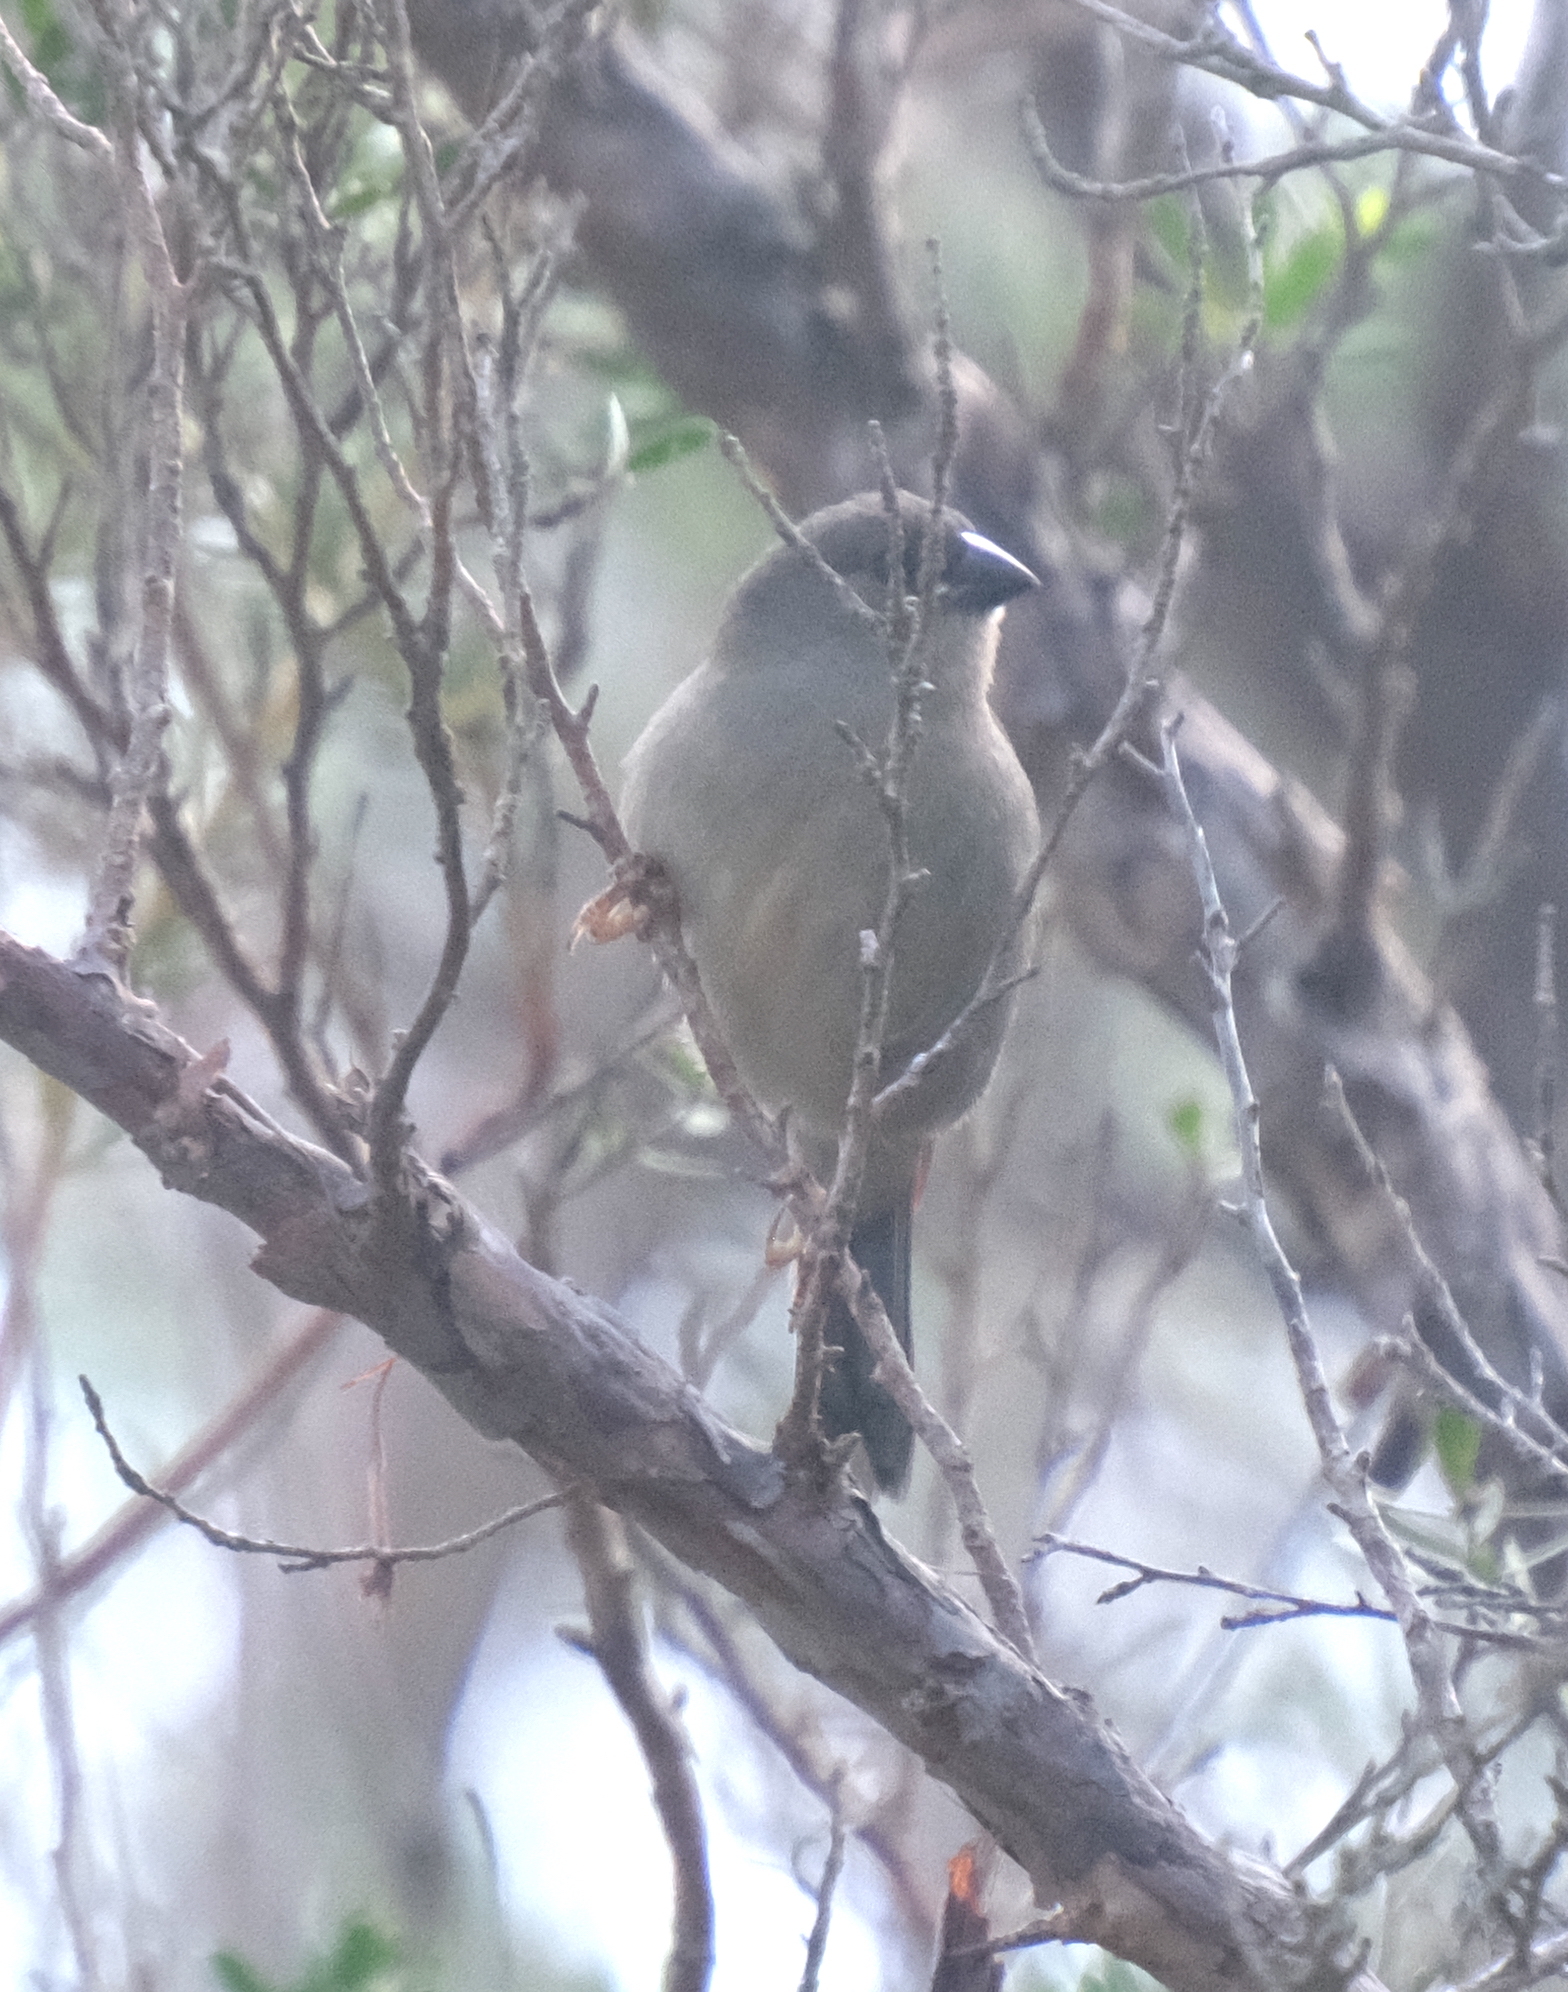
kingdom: Animalia
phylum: Chordata
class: Aves
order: Passeriformes
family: Estrildidae
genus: Neochmia
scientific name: Neochmia temporalis
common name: Red-browed finch
